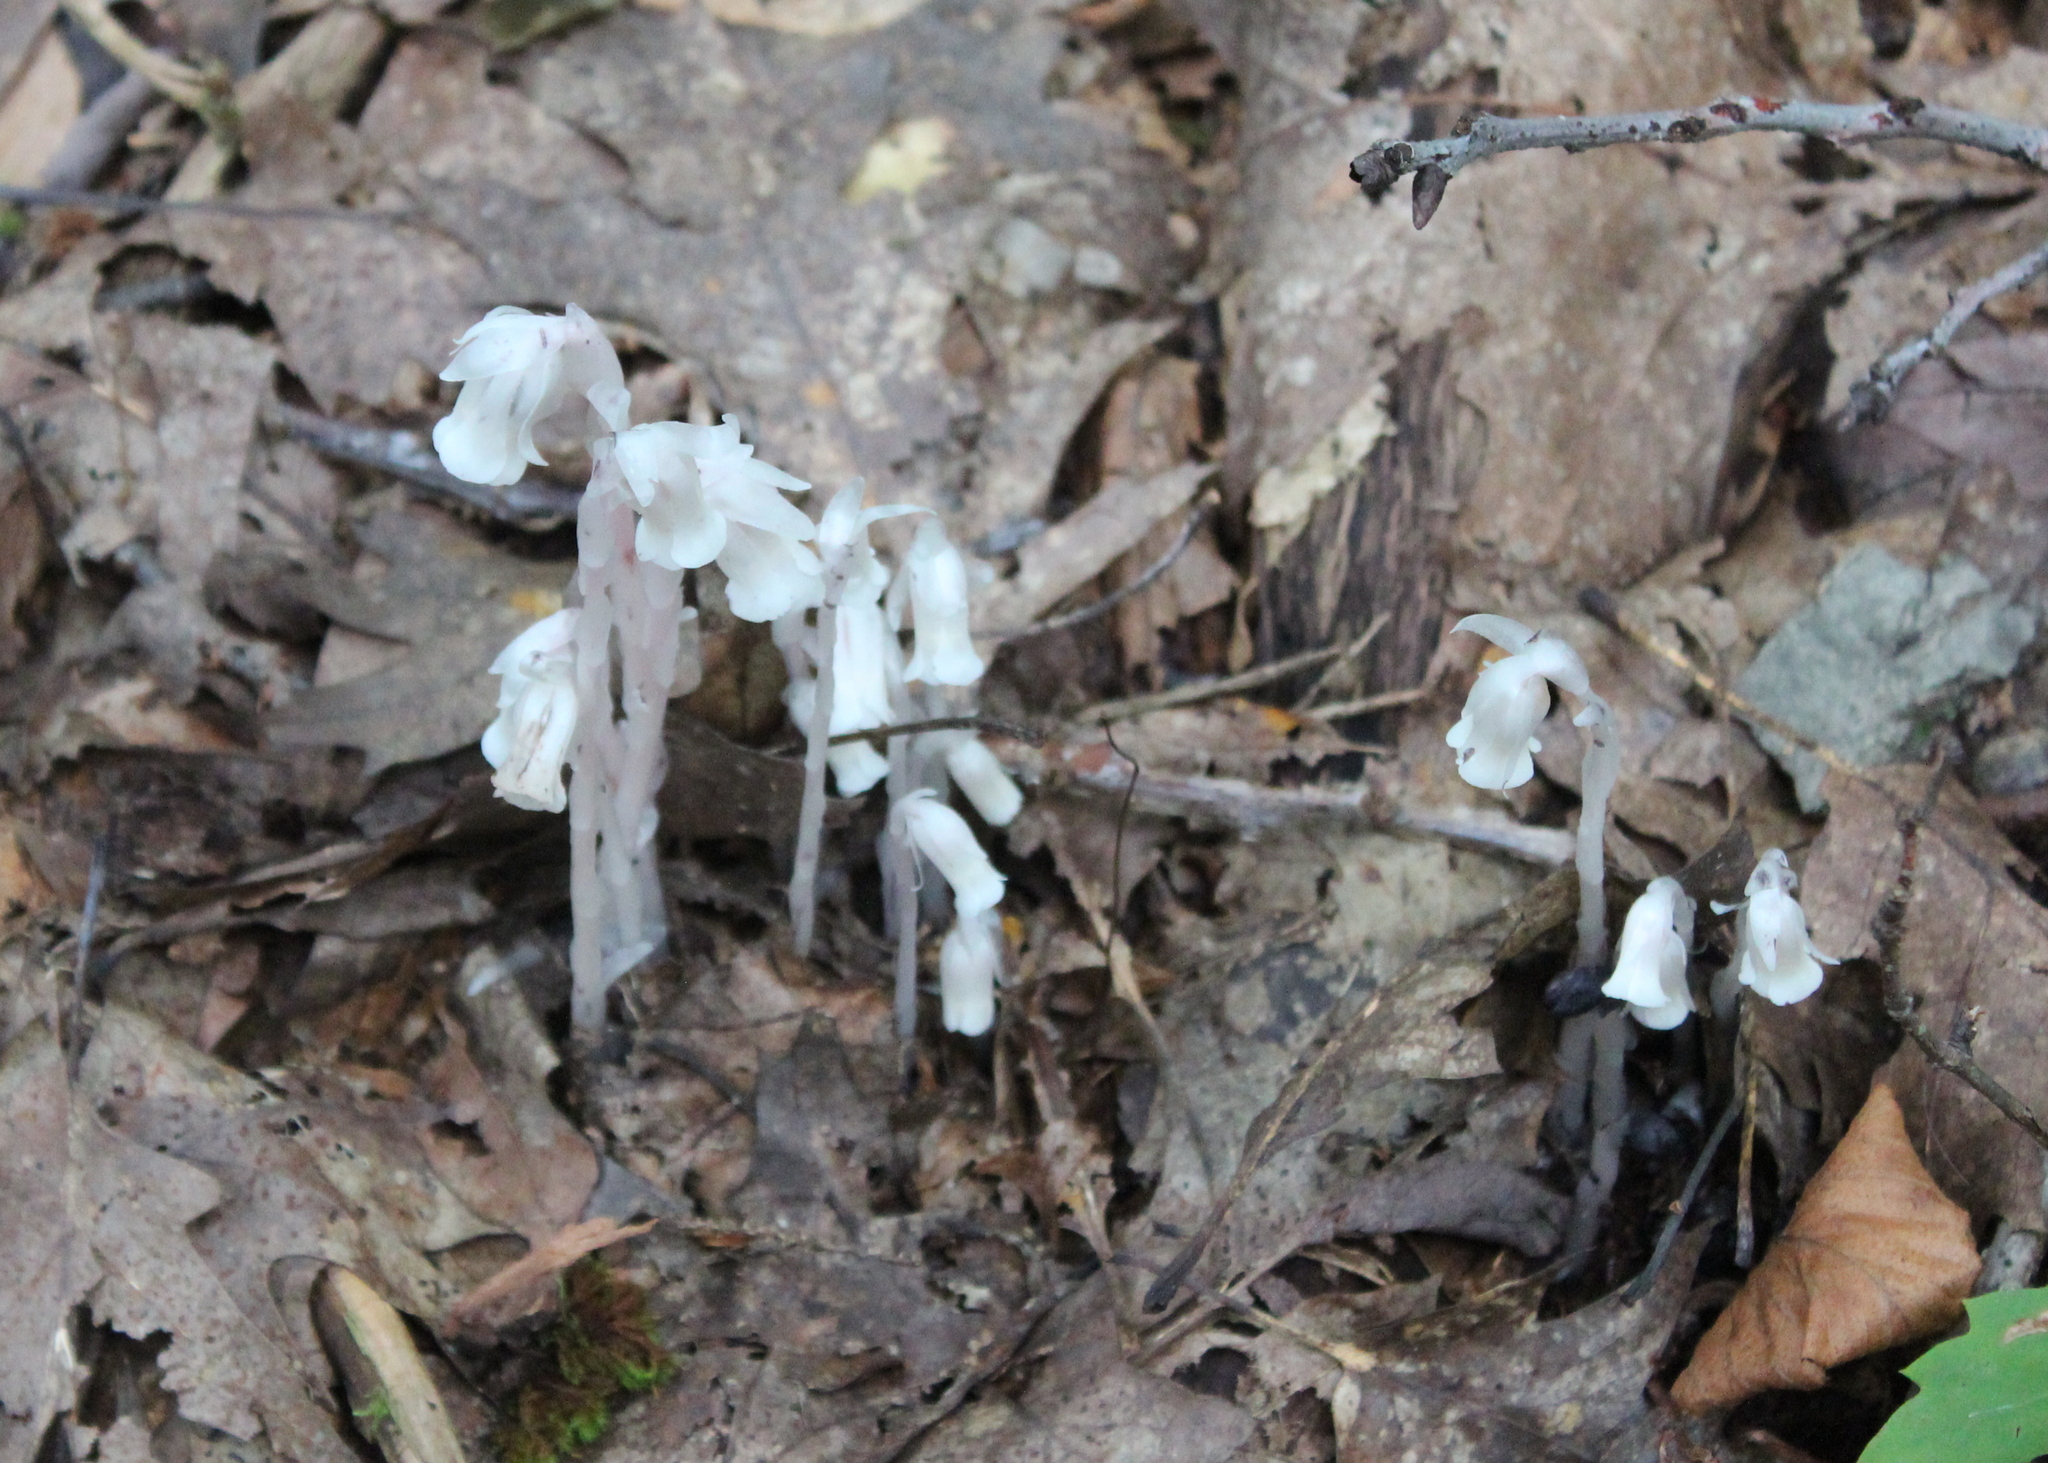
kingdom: Plantae
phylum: Tracheophyta
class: Magnoliopsida
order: Ericales
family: Ericaceae
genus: Monotropa
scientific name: Monotropa uniflora
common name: Convulsion root
